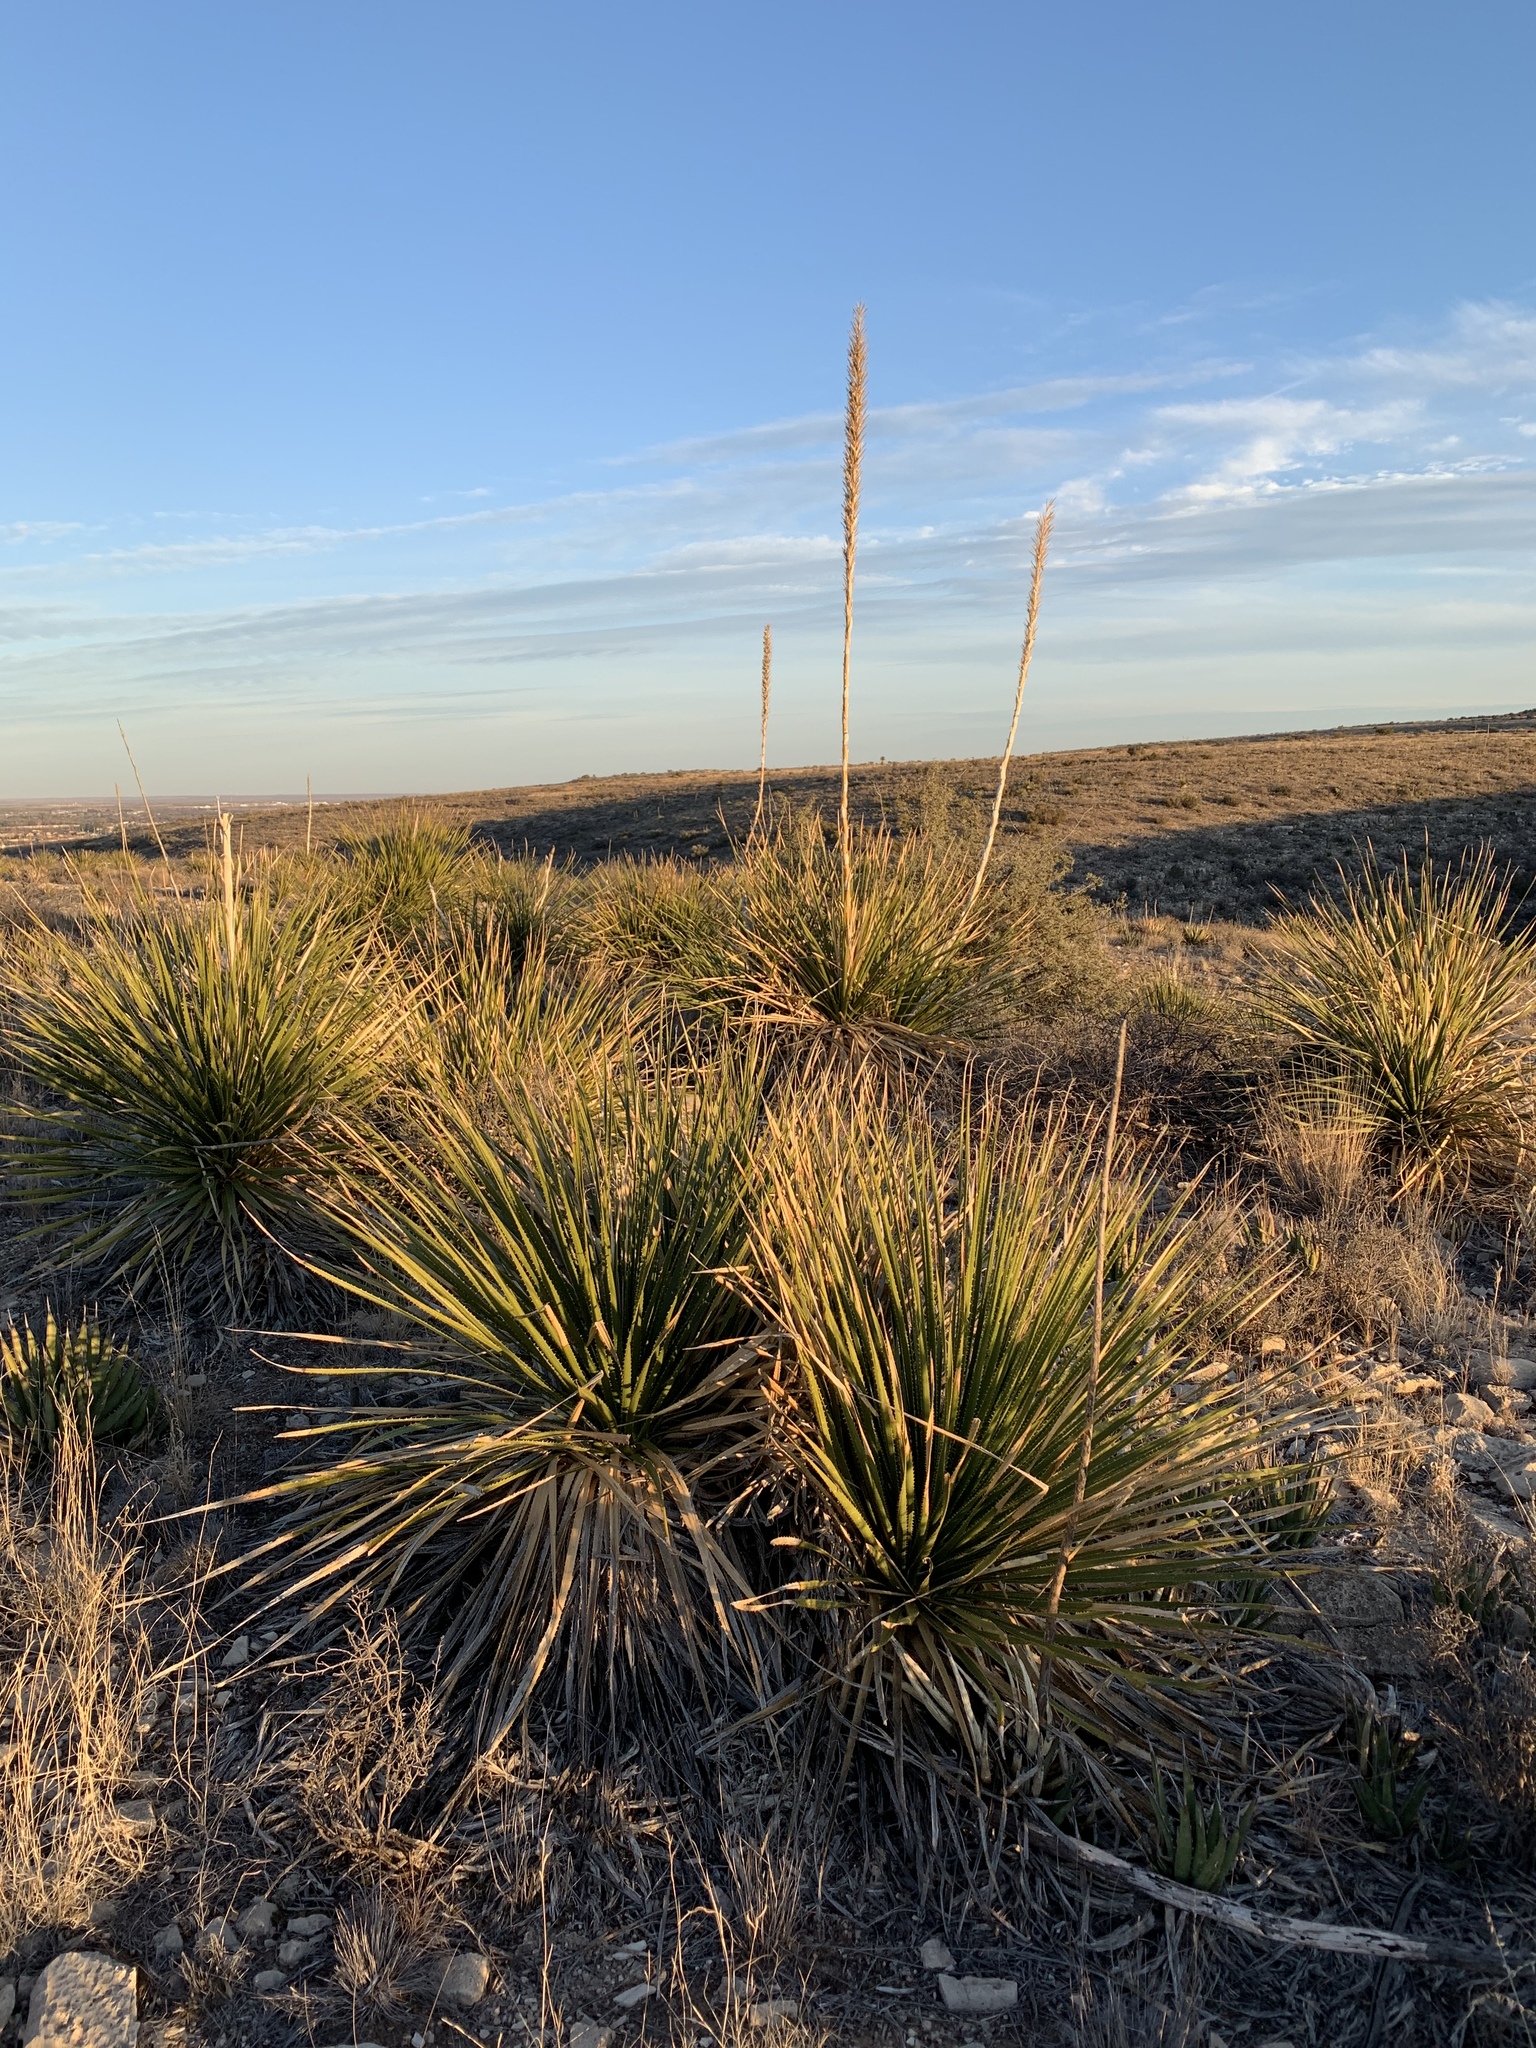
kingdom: Plantae
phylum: Tracheophyta
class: Liliopsida
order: Asparagales
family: Asparagaceae
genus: Dasylirion
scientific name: Dasylirion leiophyllum
